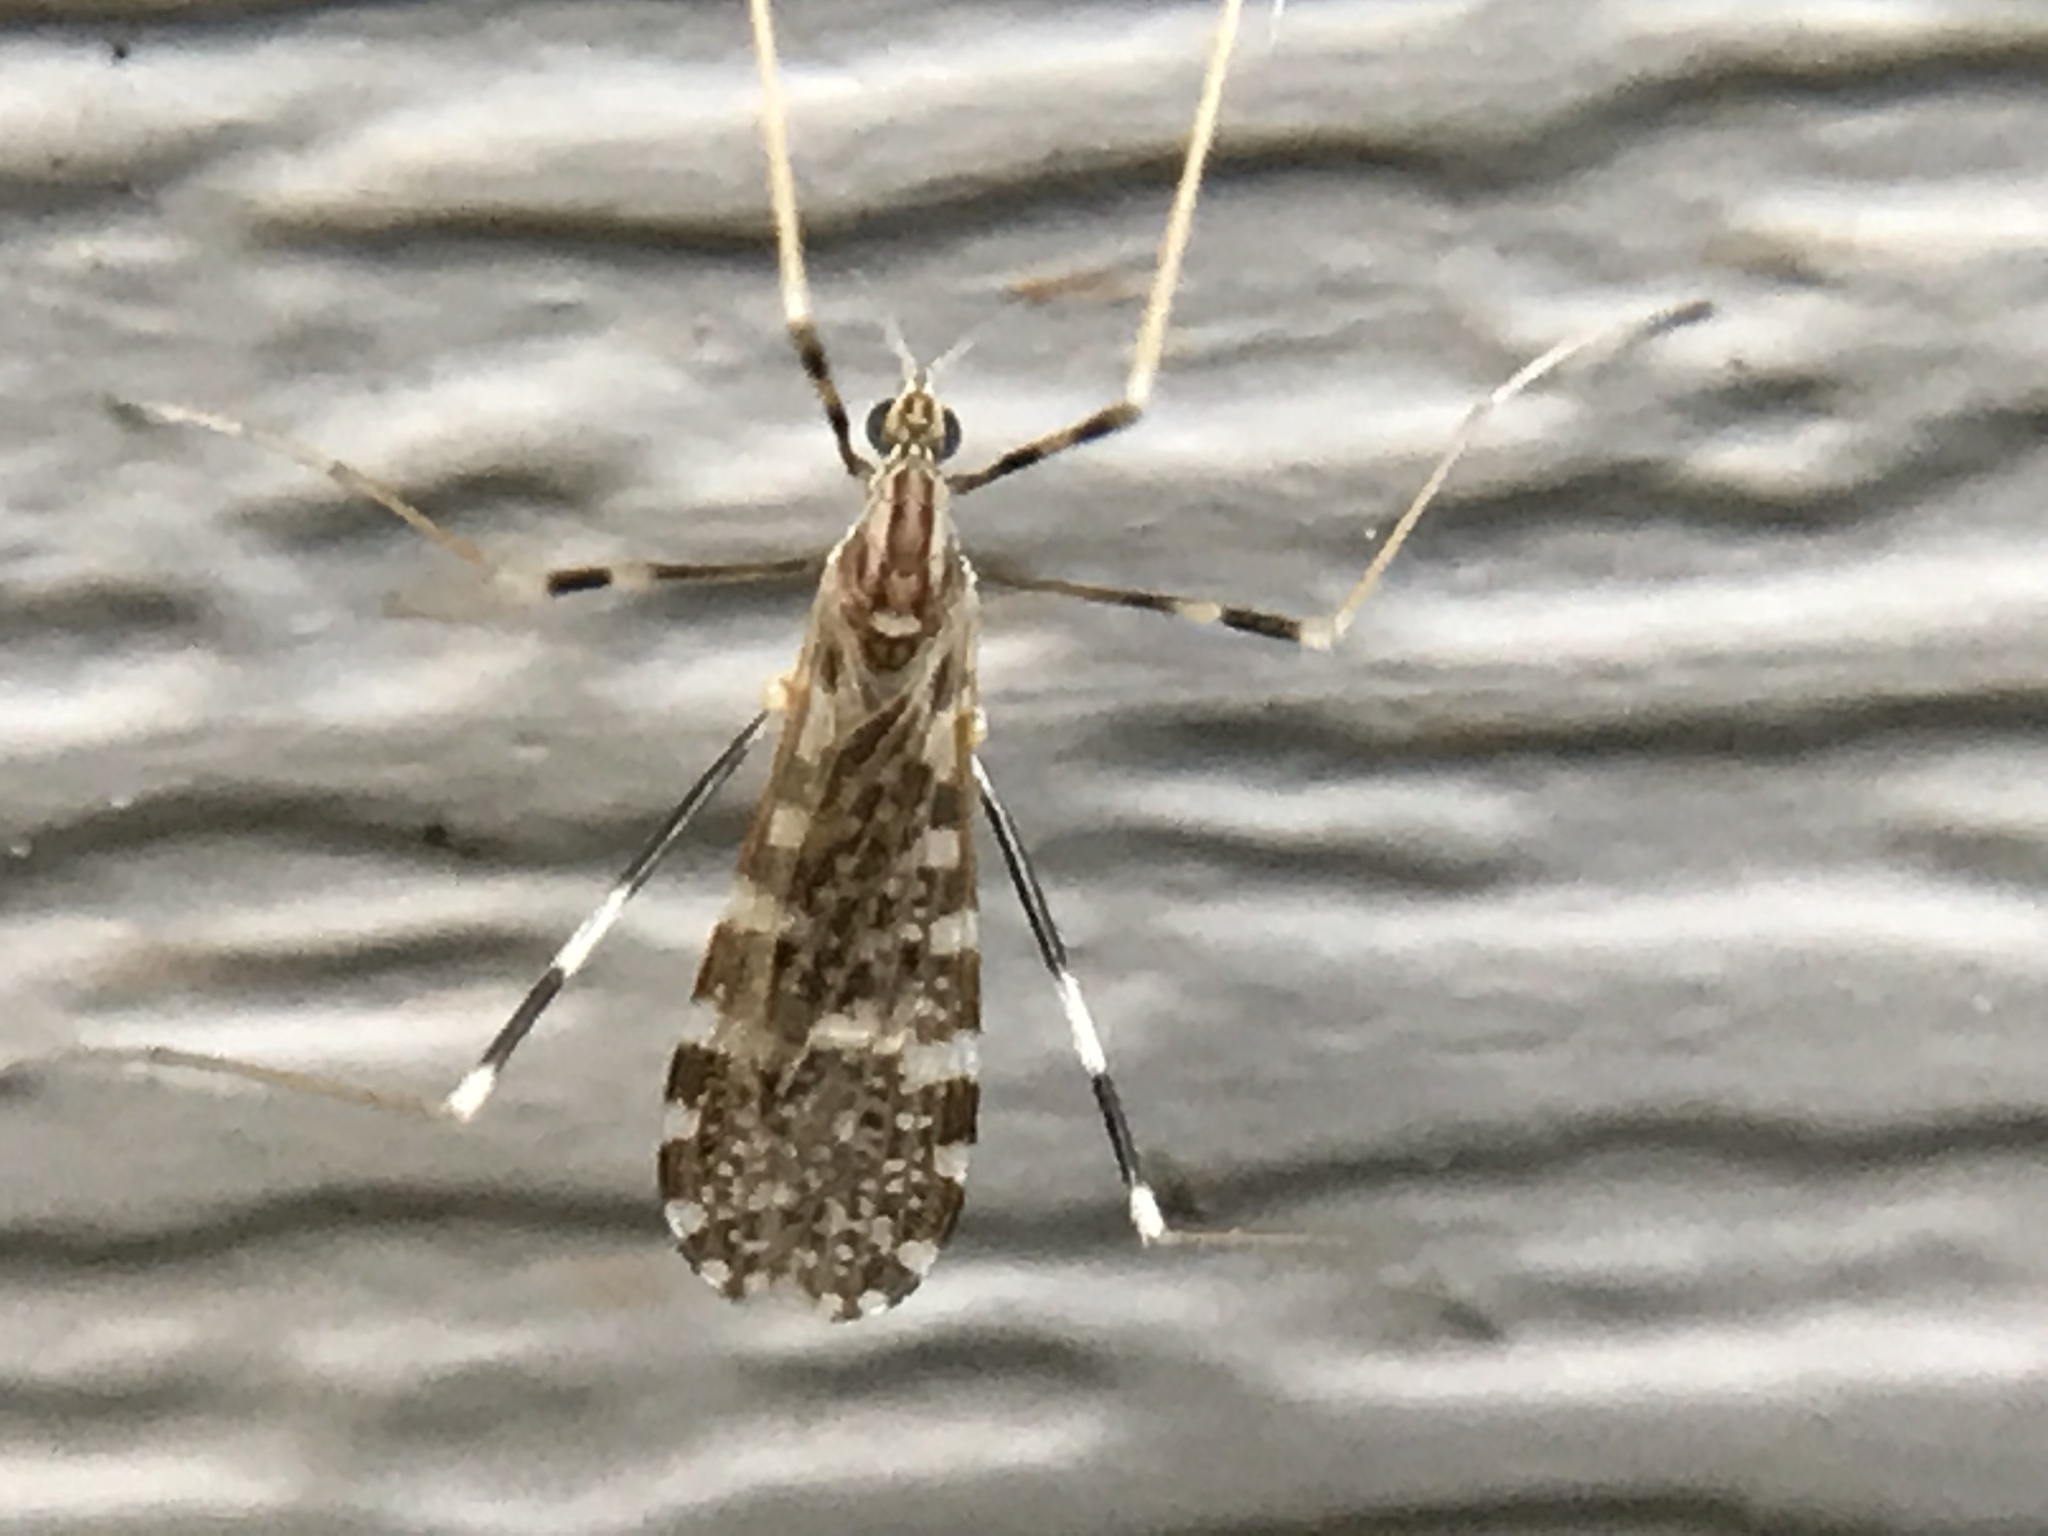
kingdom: Animalia
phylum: Arthropoda
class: Insecta
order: Diptera
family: Limoniidae
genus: Erioptera
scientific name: Erioptera caliptera
